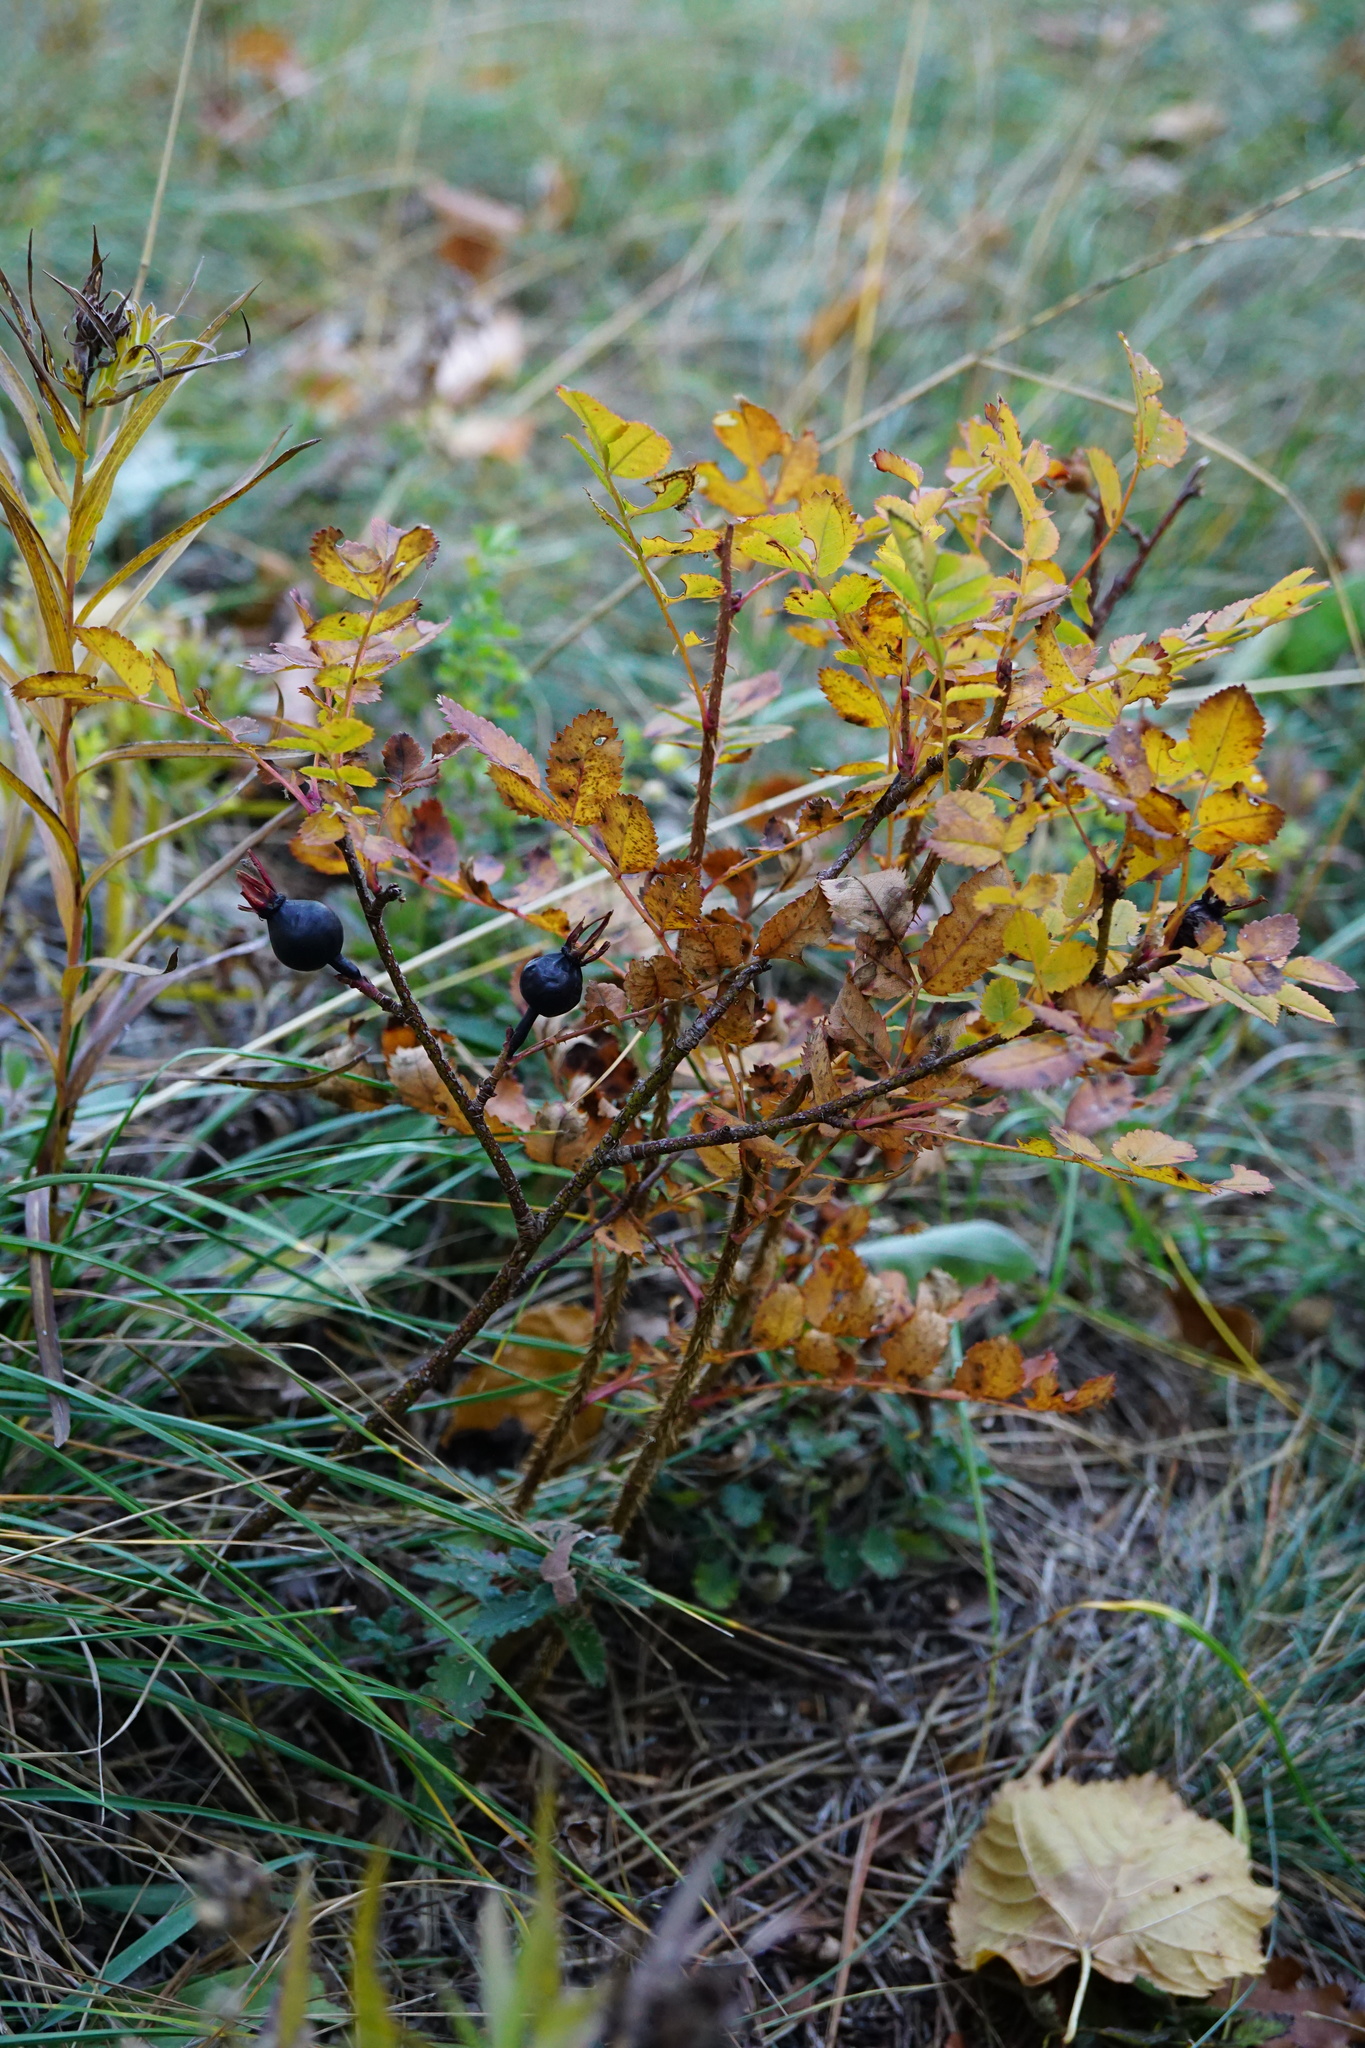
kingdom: Plantae
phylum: Tracheophyta
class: Magnoliopsida
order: Rosales
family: Rosaceae
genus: Rosa
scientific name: Rosa spinosissima
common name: Burnet rose
